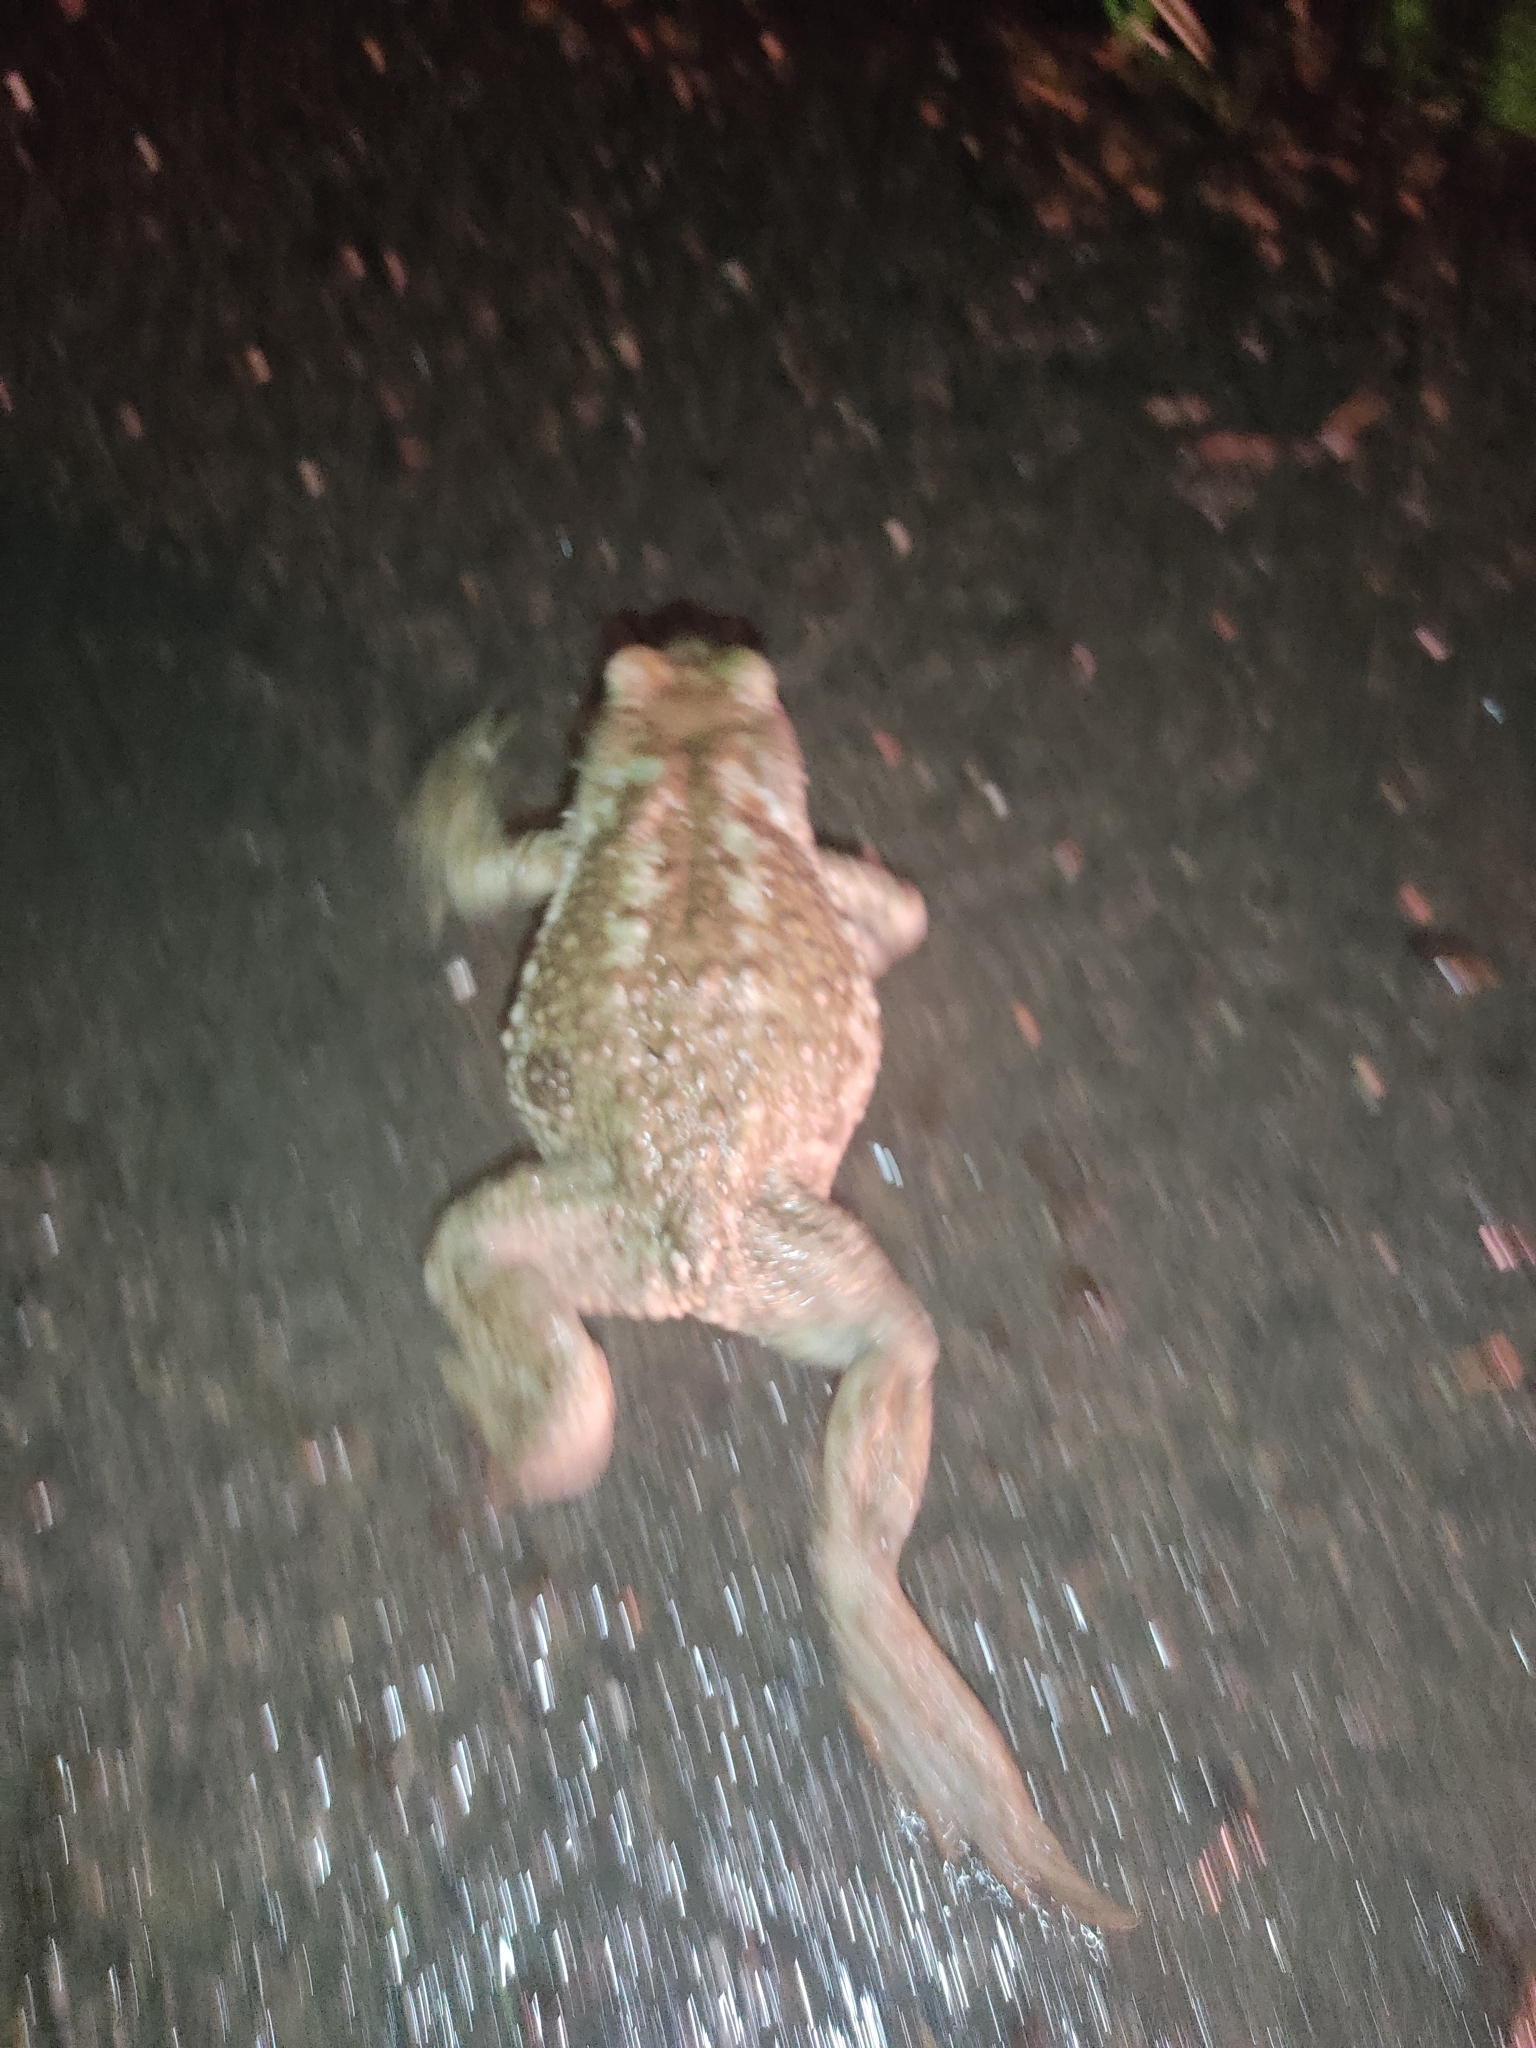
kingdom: Animalia
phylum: Chordata
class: Amphibia
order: Anura
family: Bufonidae
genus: Bufo
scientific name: Bufo spinosus
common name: Western common toad
